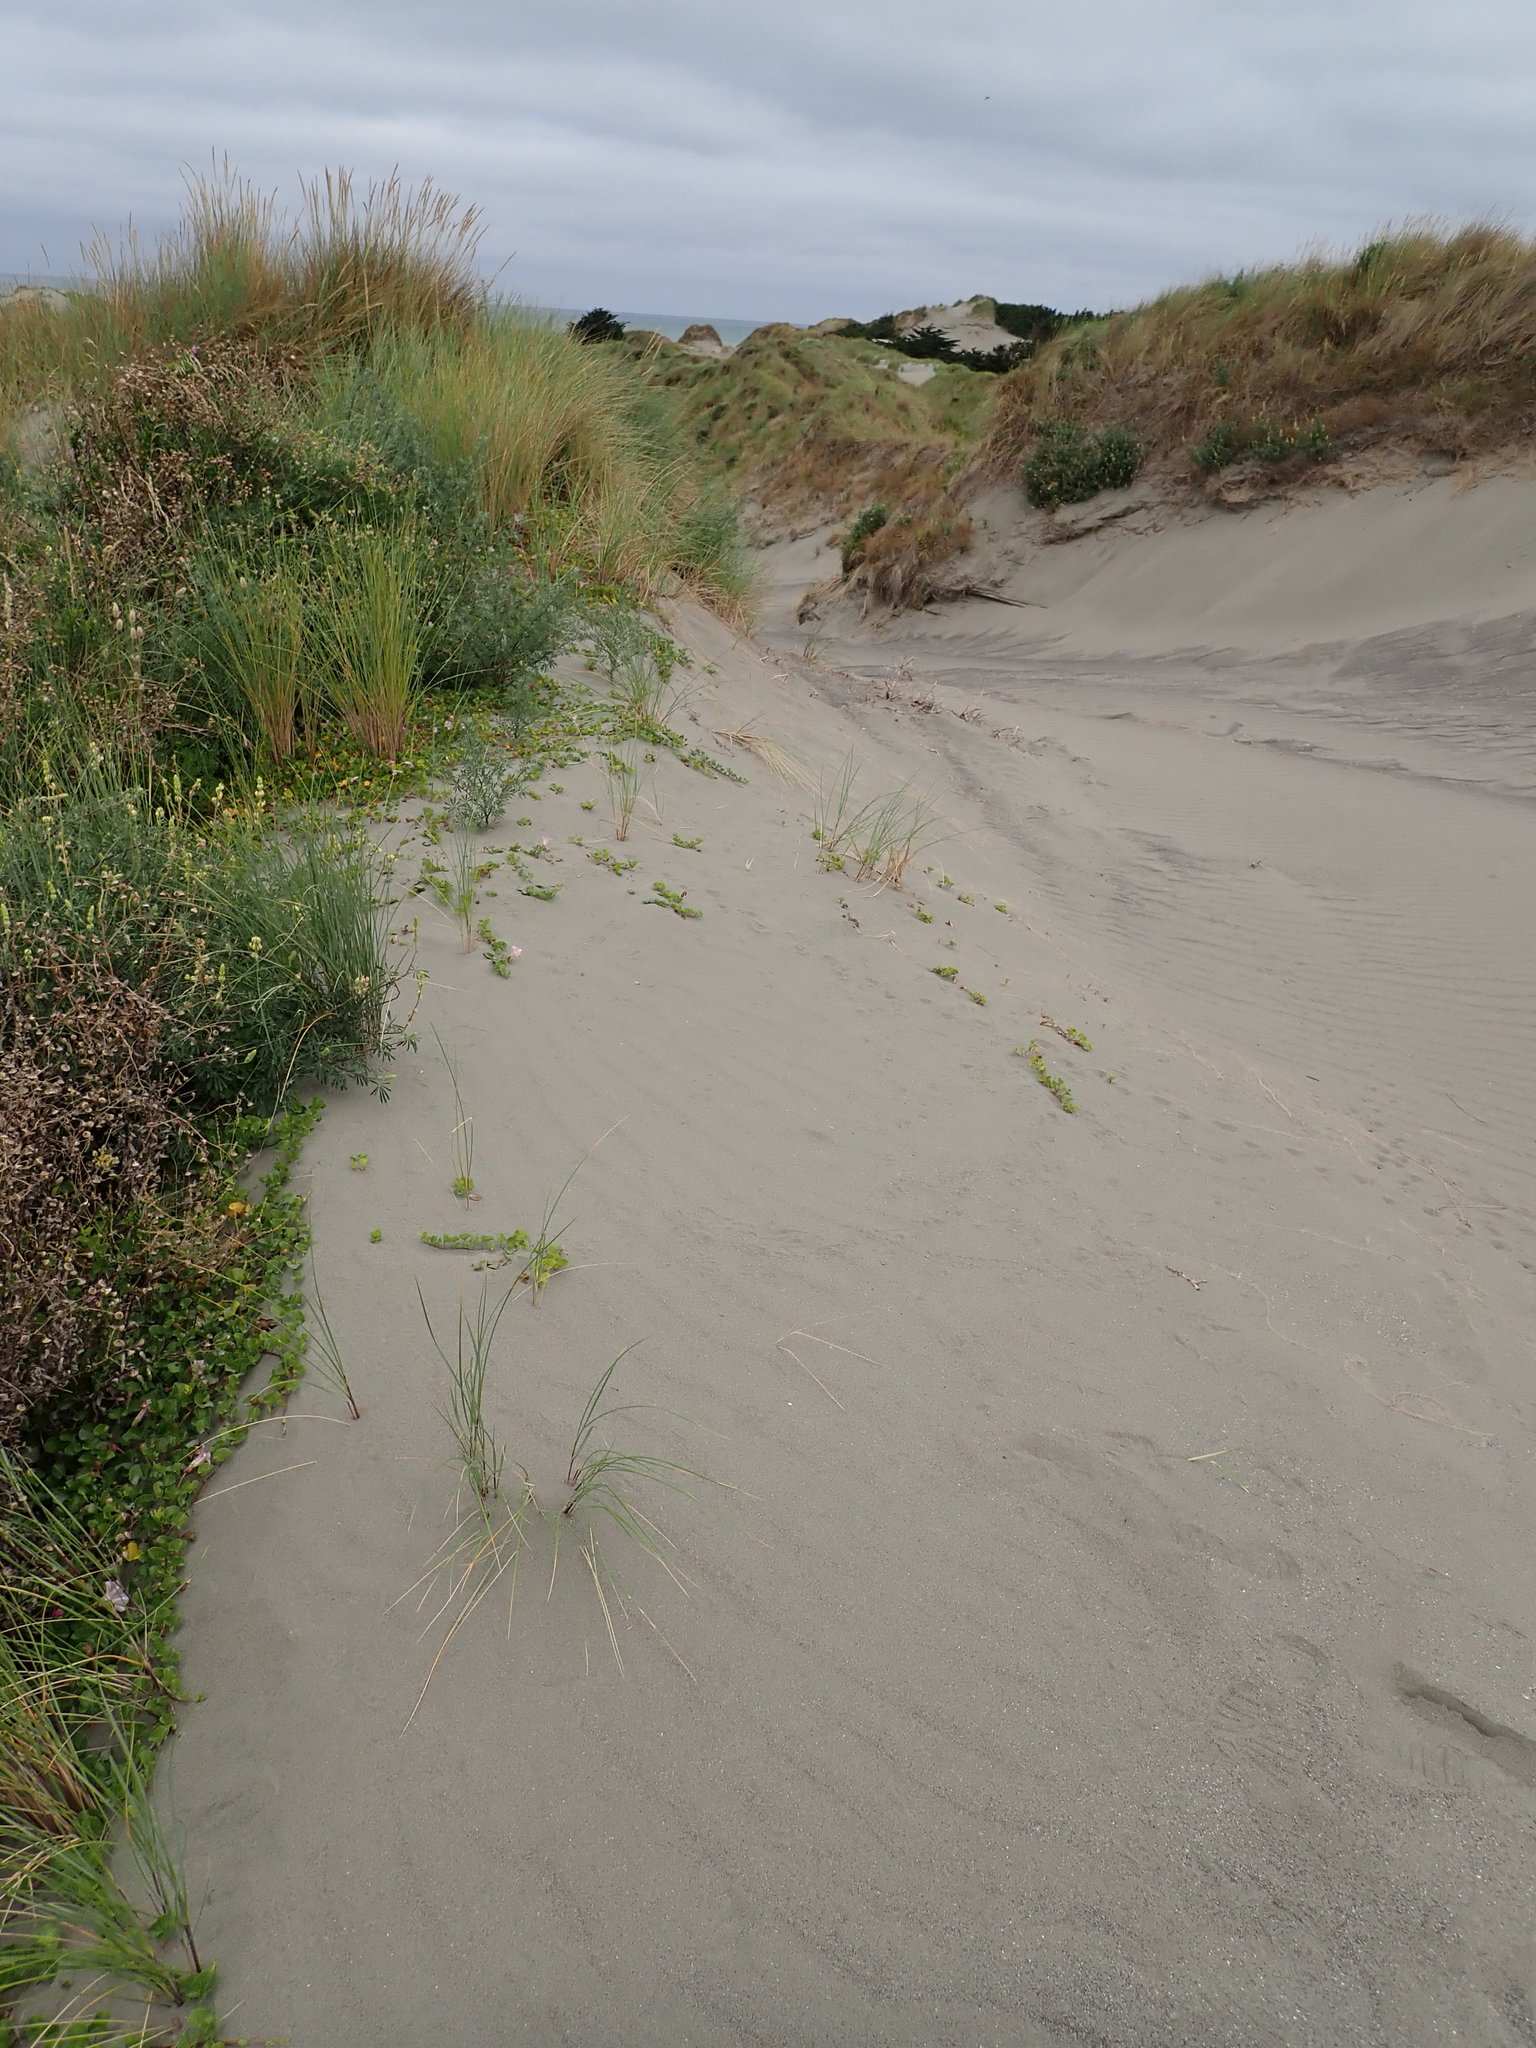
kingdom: Plantae
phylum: Tracheophyta
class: Magnoliopsida
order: Solanales
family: Convolvulaceae
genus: Calystegia
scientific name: Calystegia soldanella
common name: Sea bindweed
